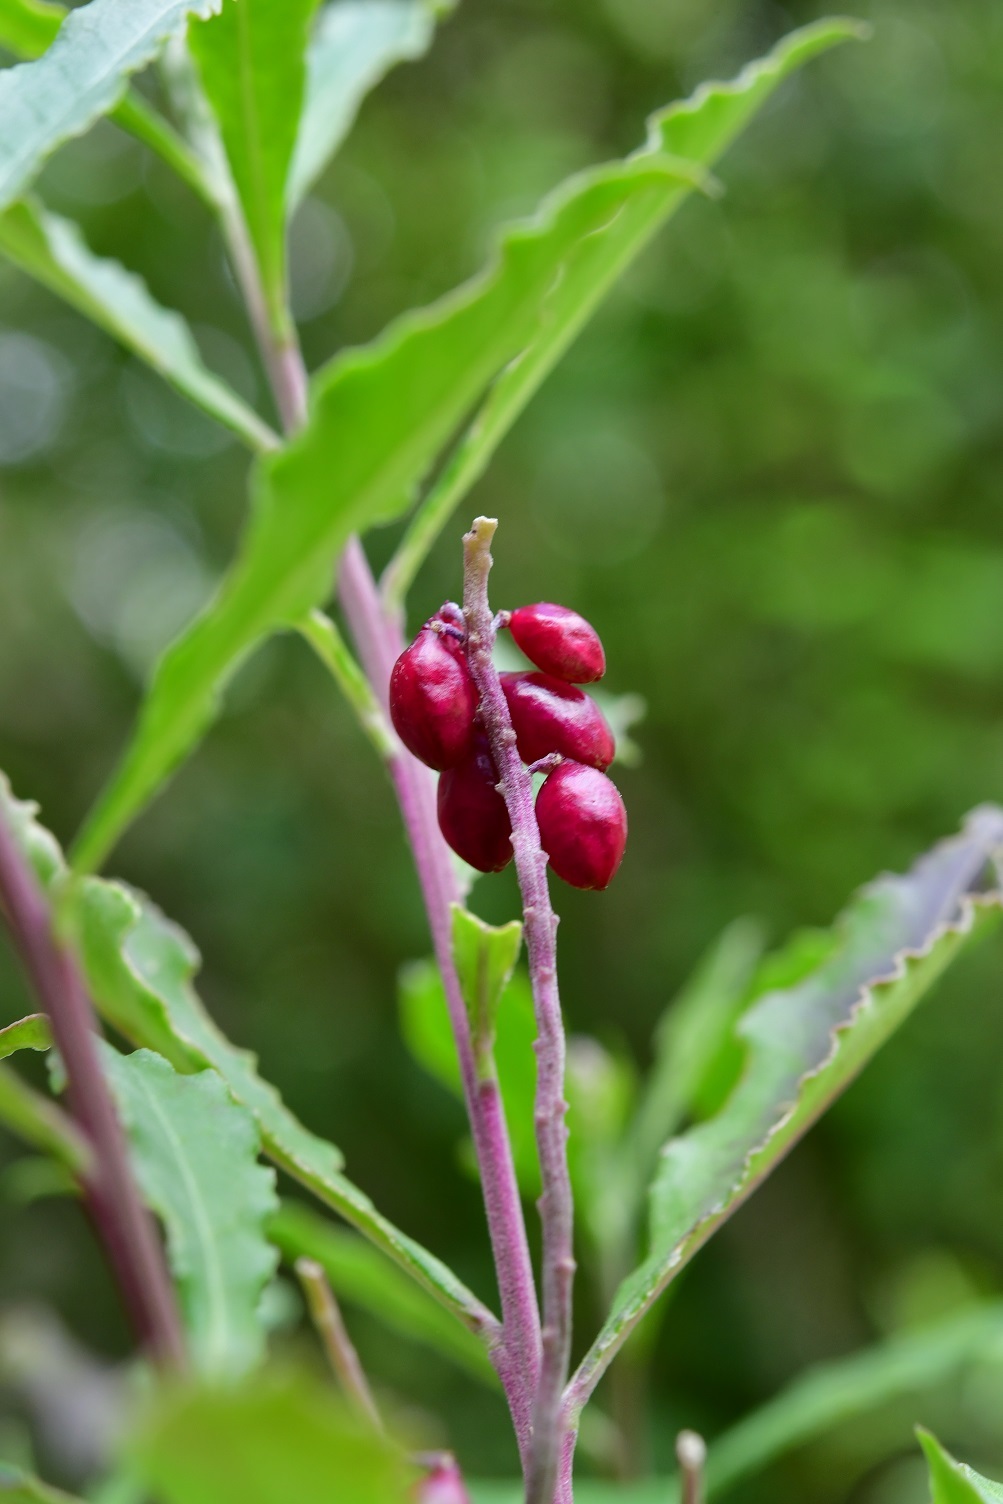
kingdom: Plantae
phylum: Tracheophyta
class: Magnoliopsida
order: Fabales
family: Polygalaceae
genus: Monnina
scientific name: Monnina xalapensis
